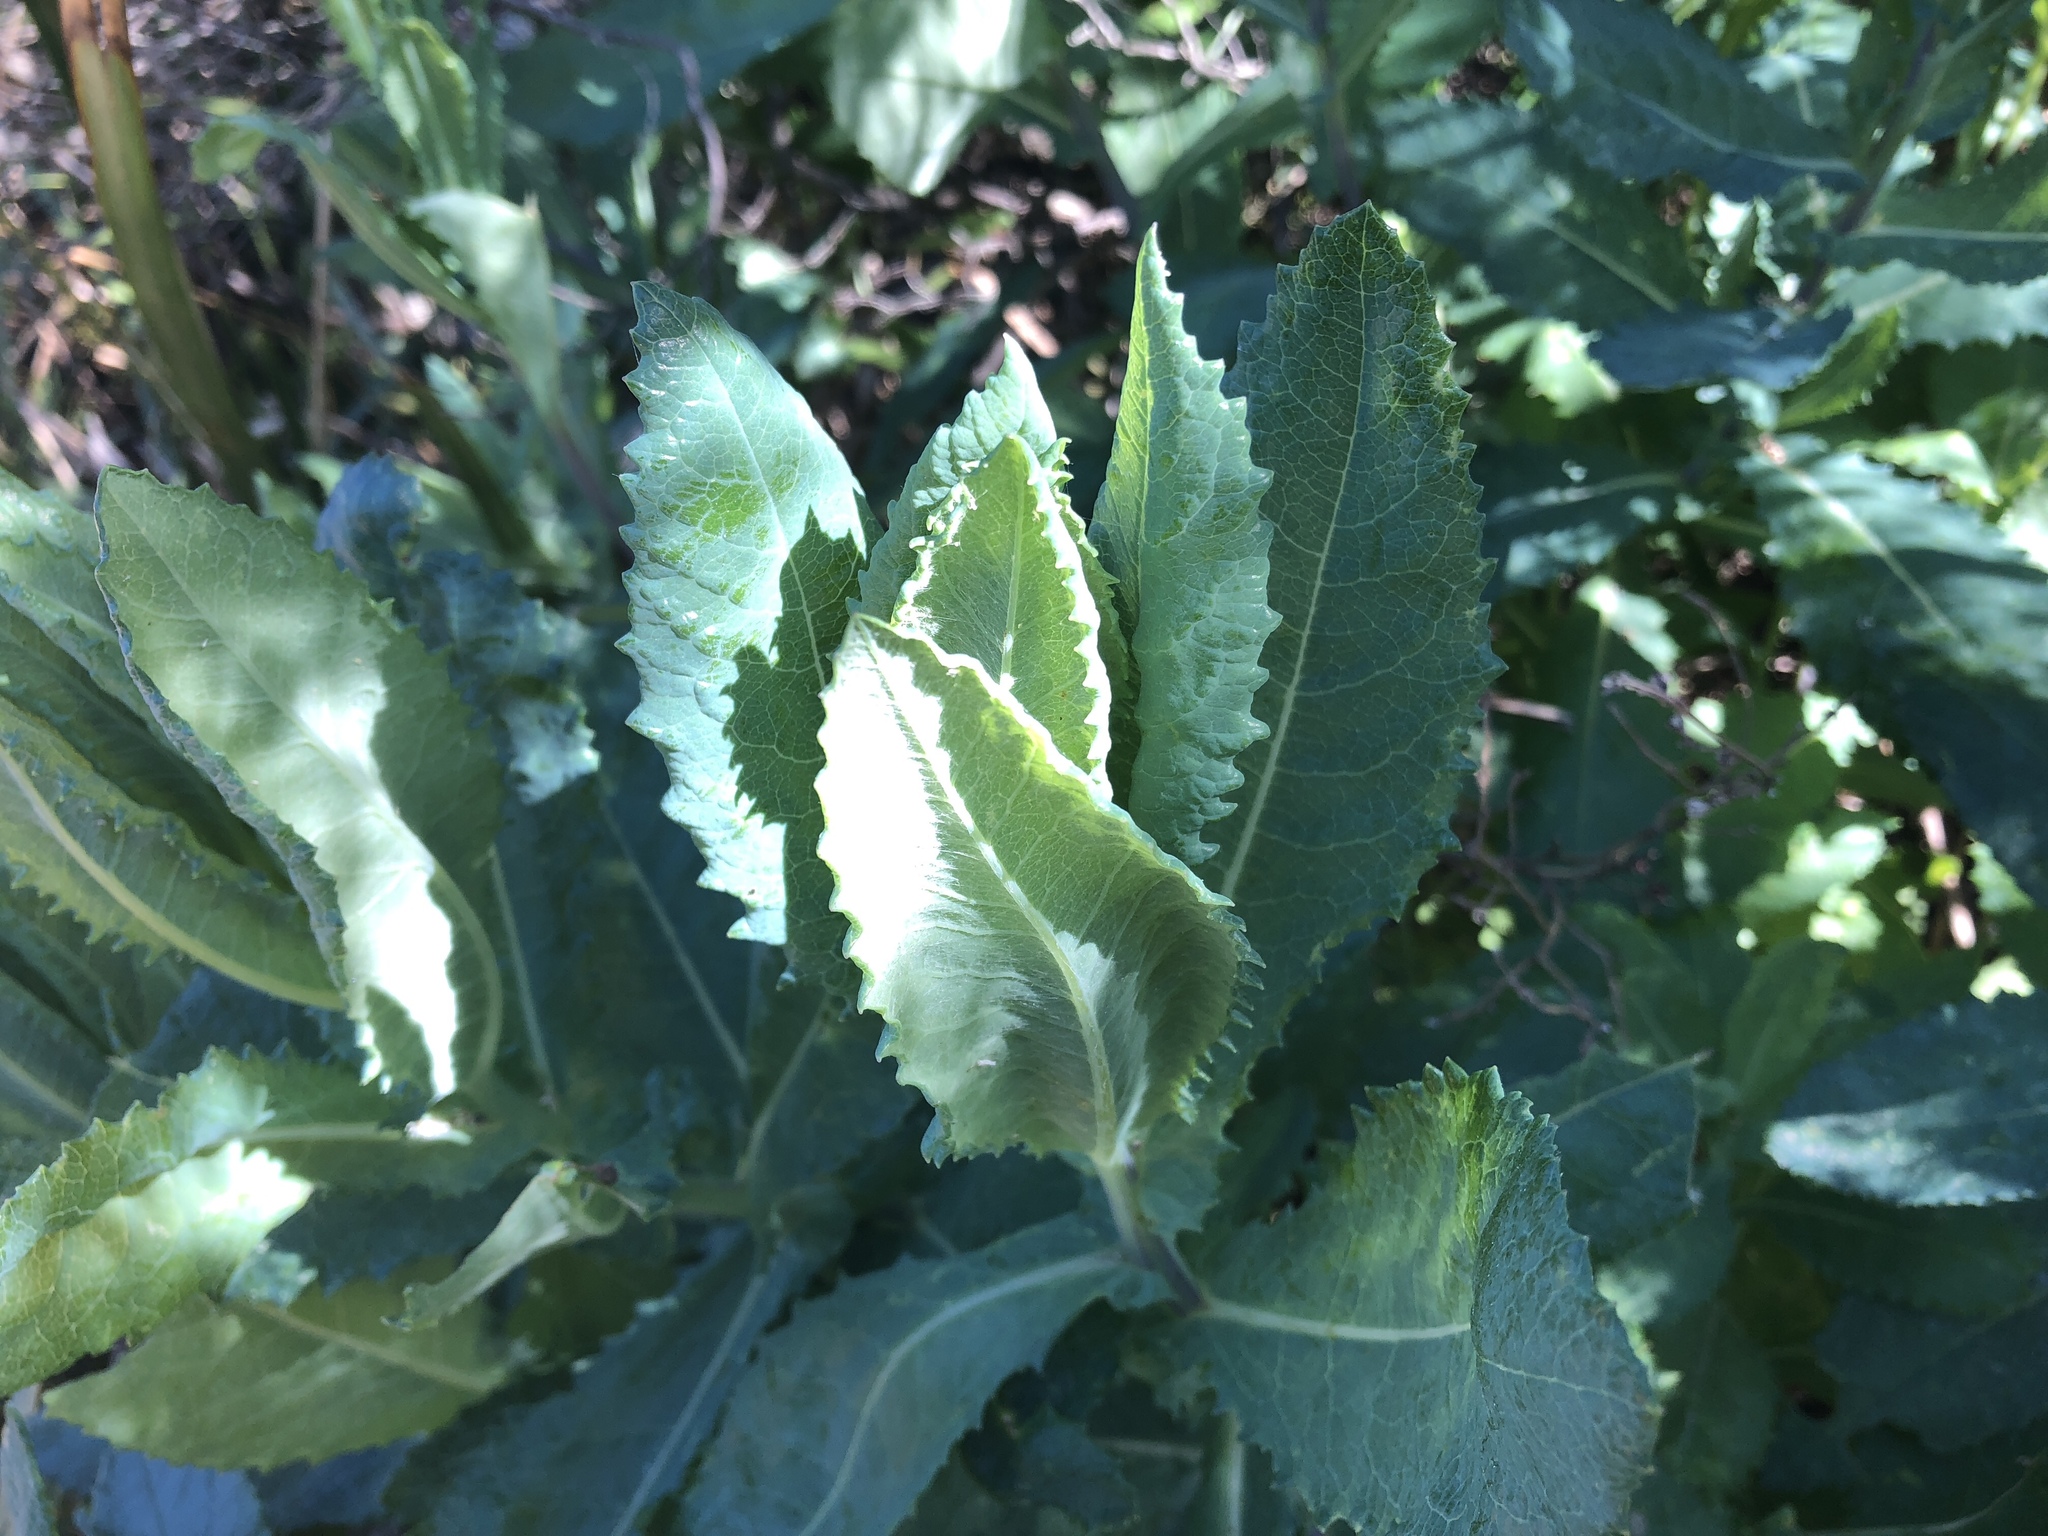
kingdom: Plantae
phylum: Tracheophyta
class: Magnoliopsida
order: Asterales
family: Asteraceae
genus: Senecio
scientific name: Senecio odoratus
